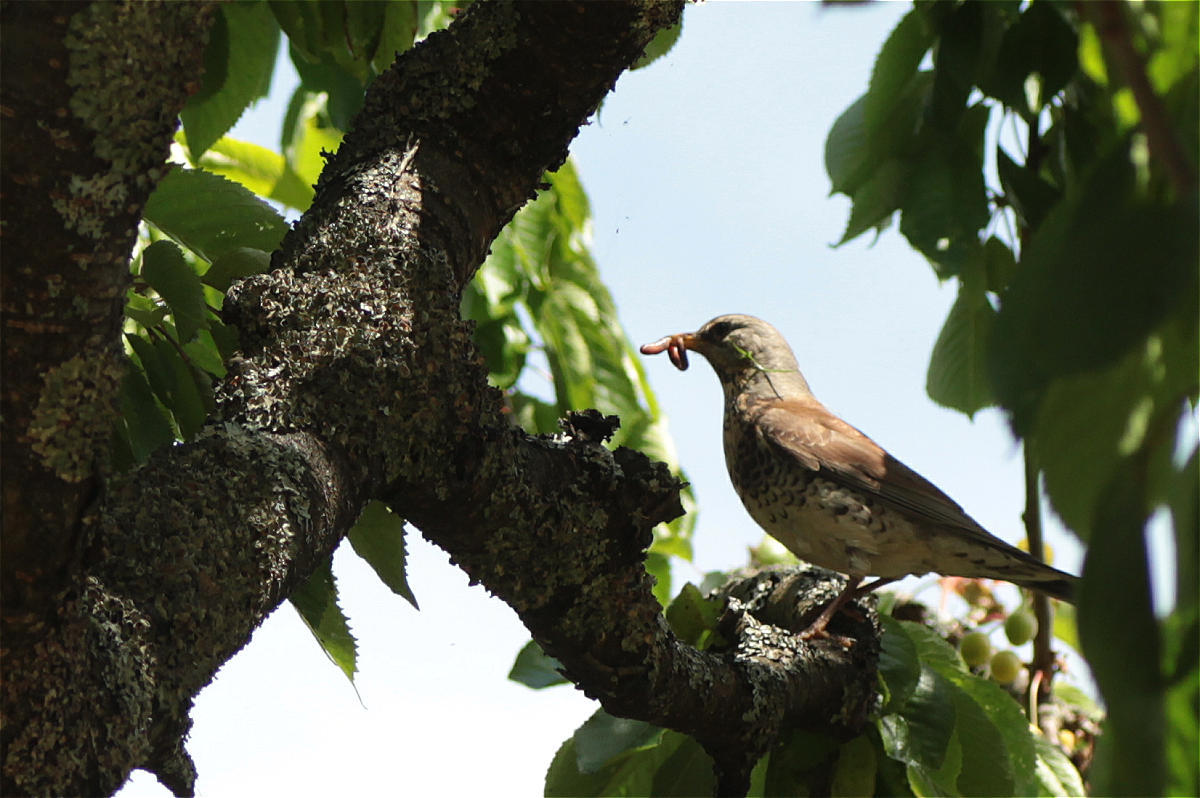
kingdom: Animalia
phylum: Chordata
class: Aves
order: Passeriformes
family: Turdidae
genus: Turdus
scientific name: Turdus pilaris
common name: Fieldfare
